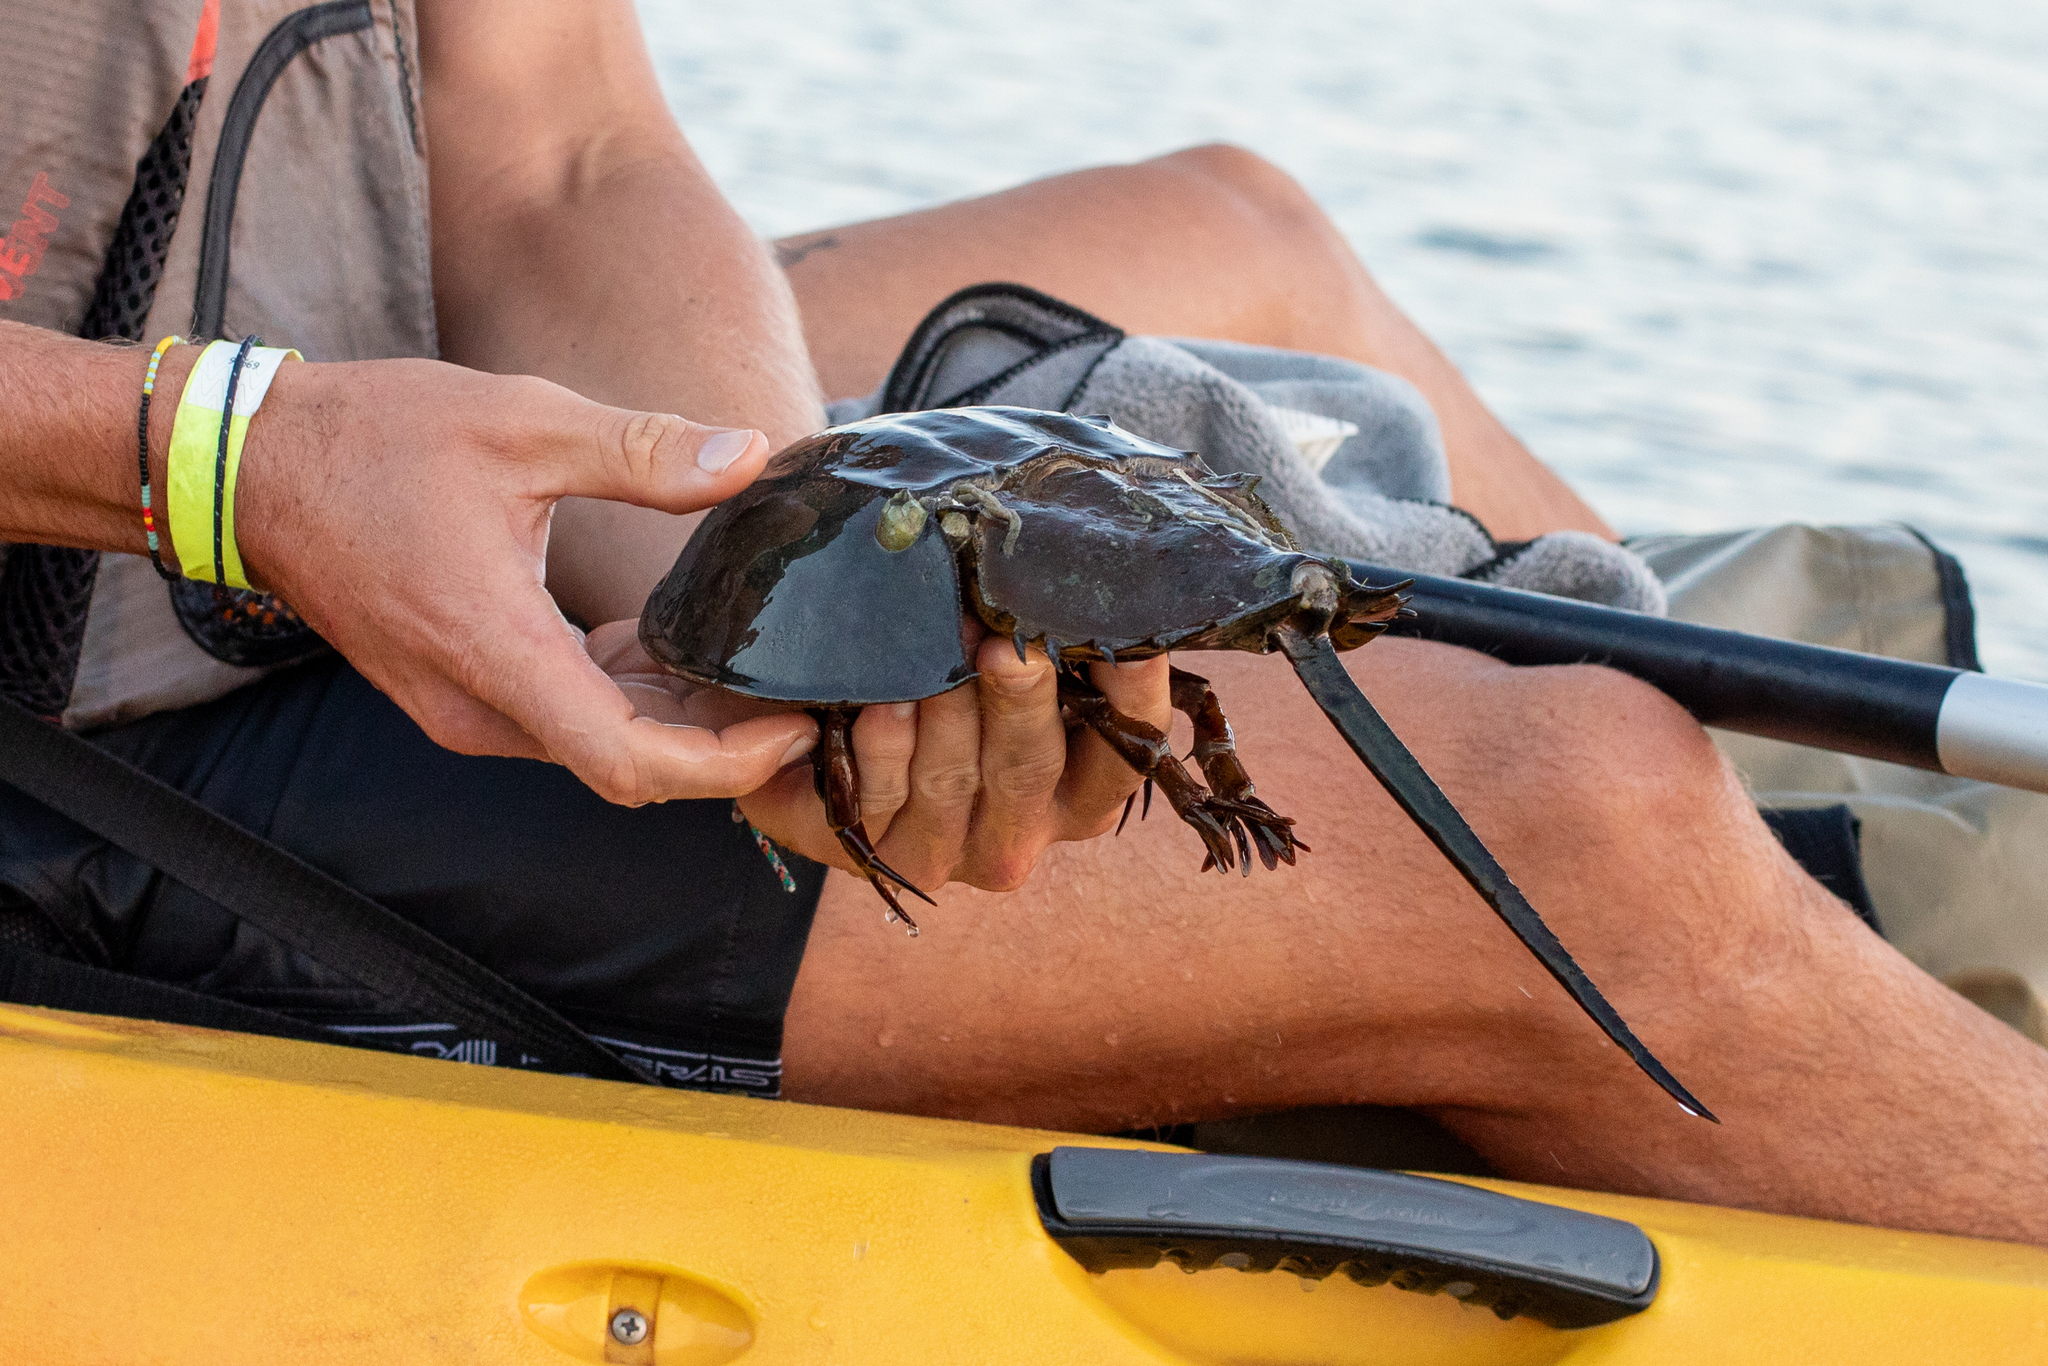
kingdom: Animalia
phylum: Arthropoda
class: Merostomata
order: Xiphosurida
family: Limulidae
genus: Limulus
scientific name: Limulus polyphemus
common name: Horseshoe crab
